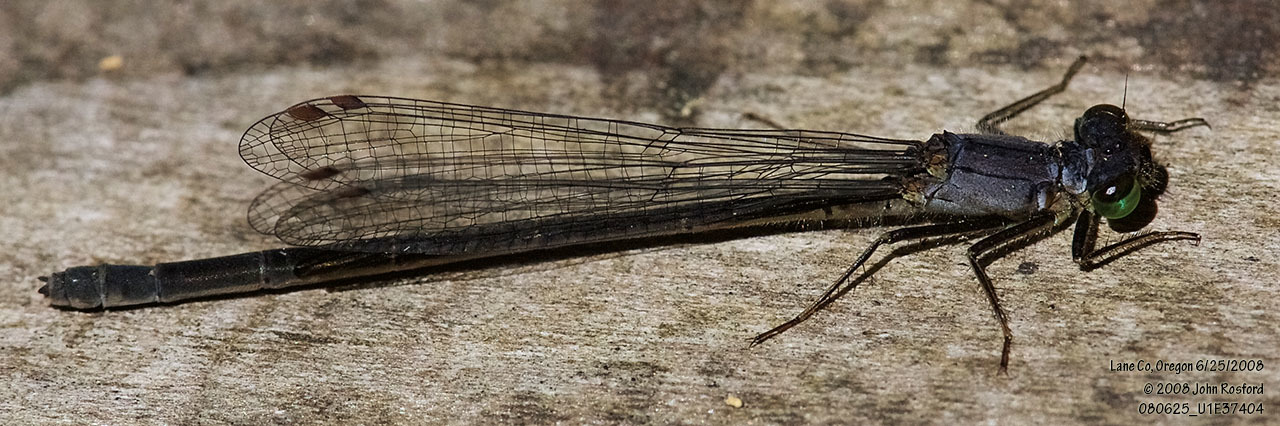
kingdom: Animalia
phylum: Arthropoda
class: Insecta
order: Odonata
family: Coenagrionidae
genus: Ischnura
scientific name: Ischnura cervula
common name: Pacific forktail
